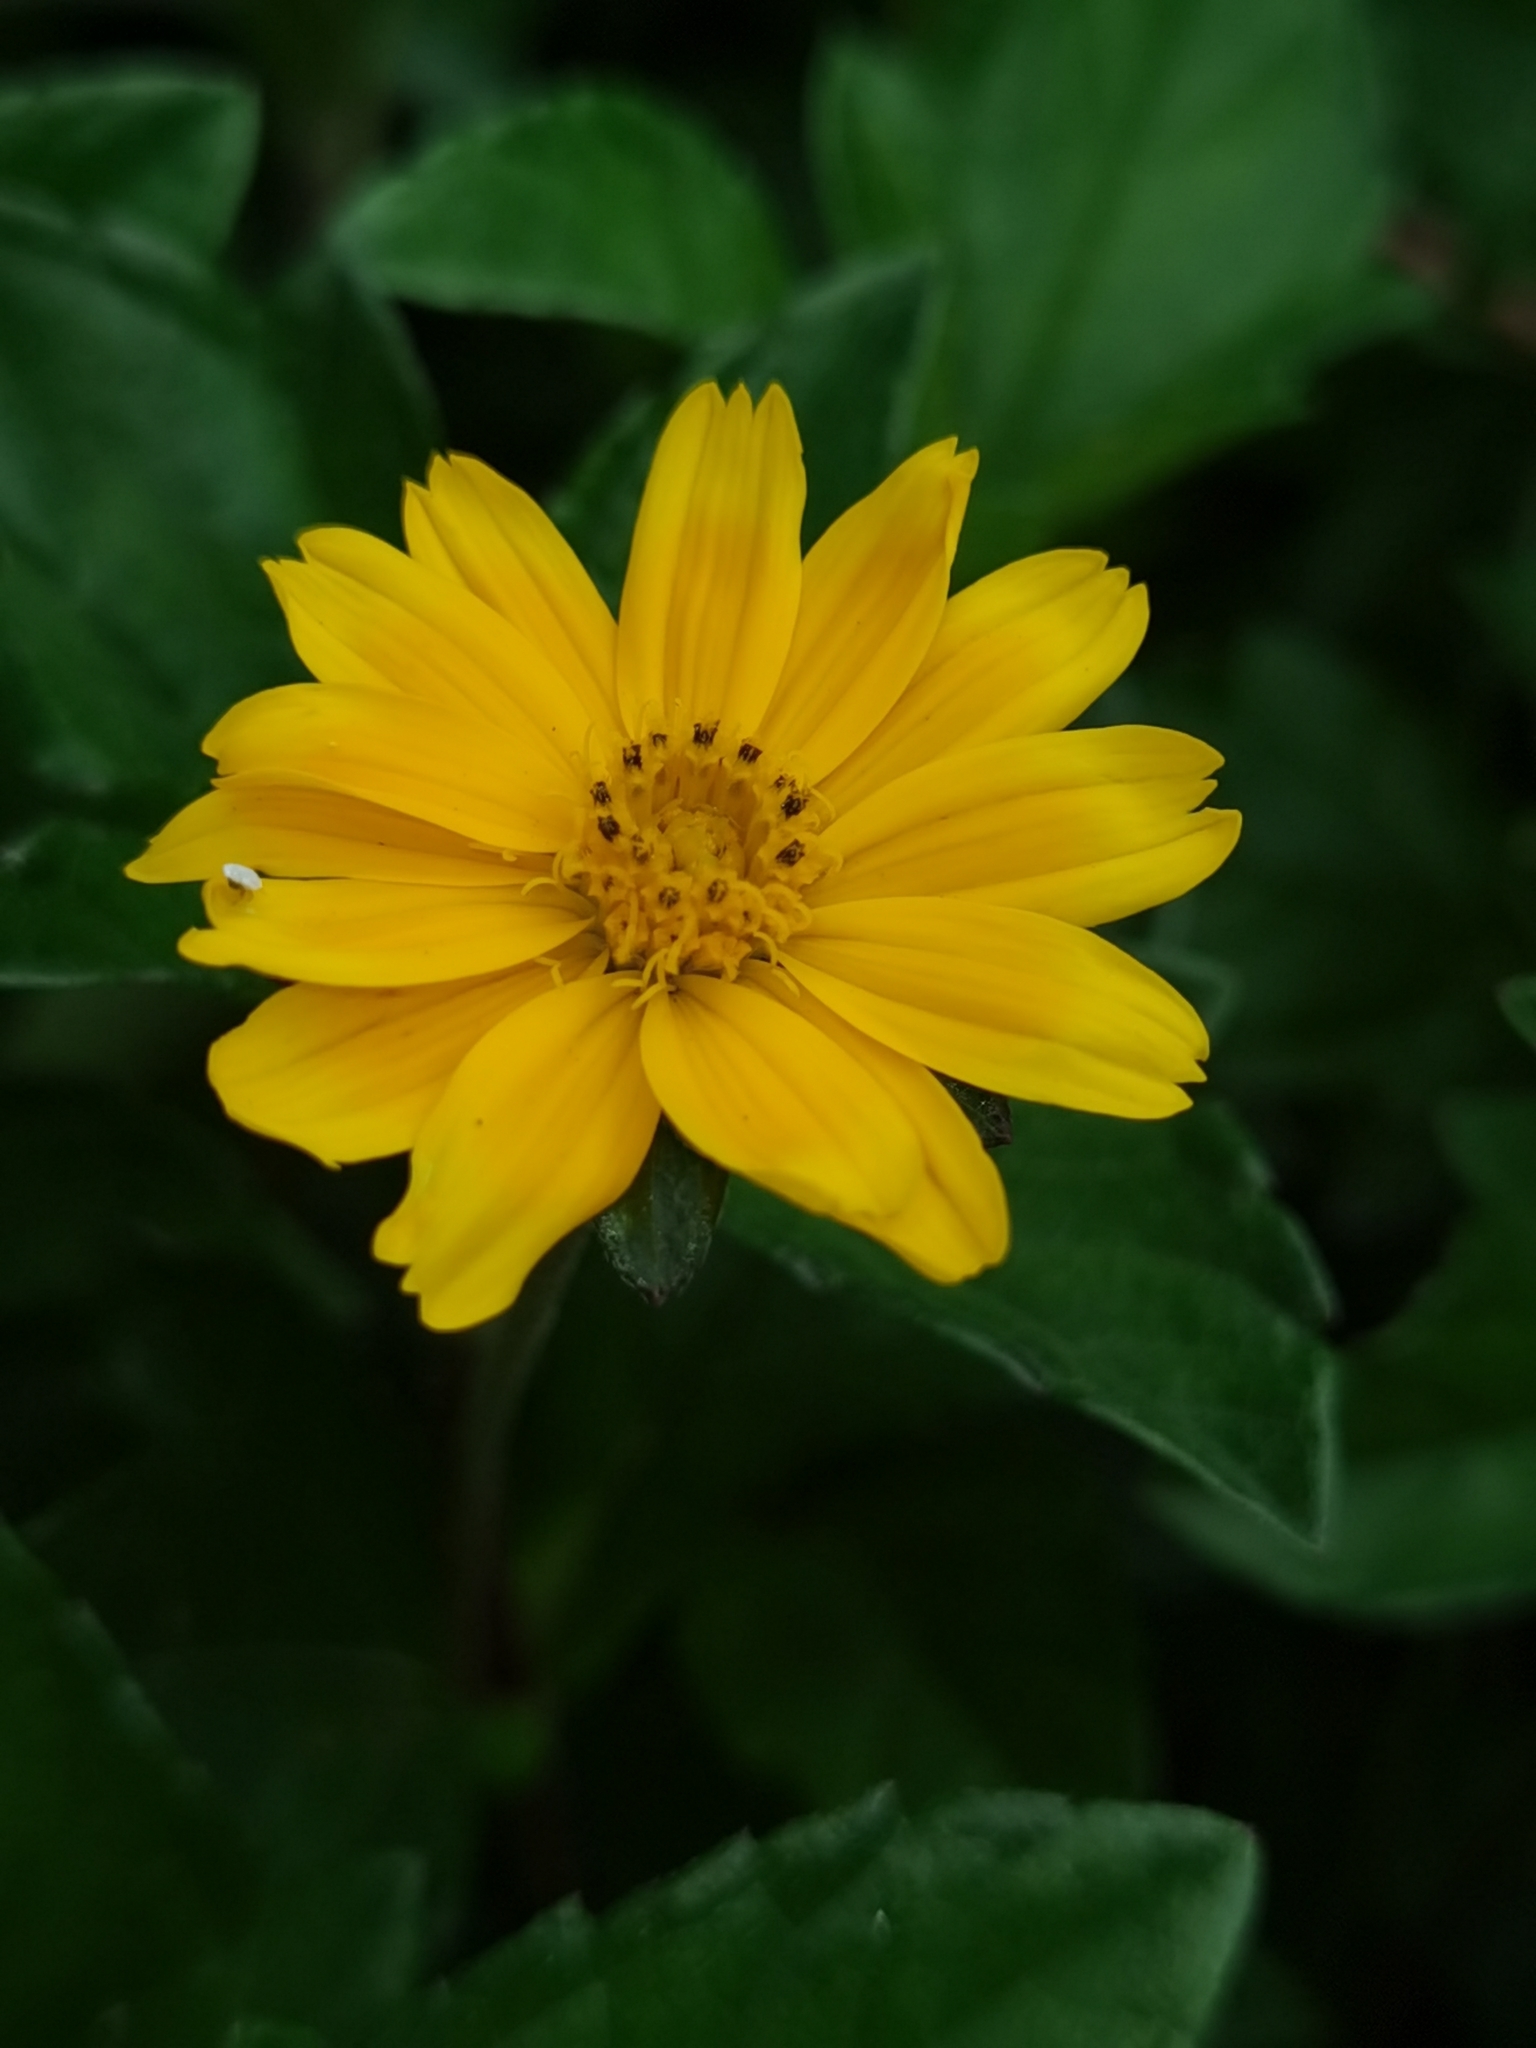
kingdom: Plantae
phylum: Tracheophyta
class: Magnoliopsida
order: Asterales
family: Asteraceae
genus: Sphagneticola
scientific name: Sphagneticola trilobata
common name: Bay biscayne creeping-oxeye
